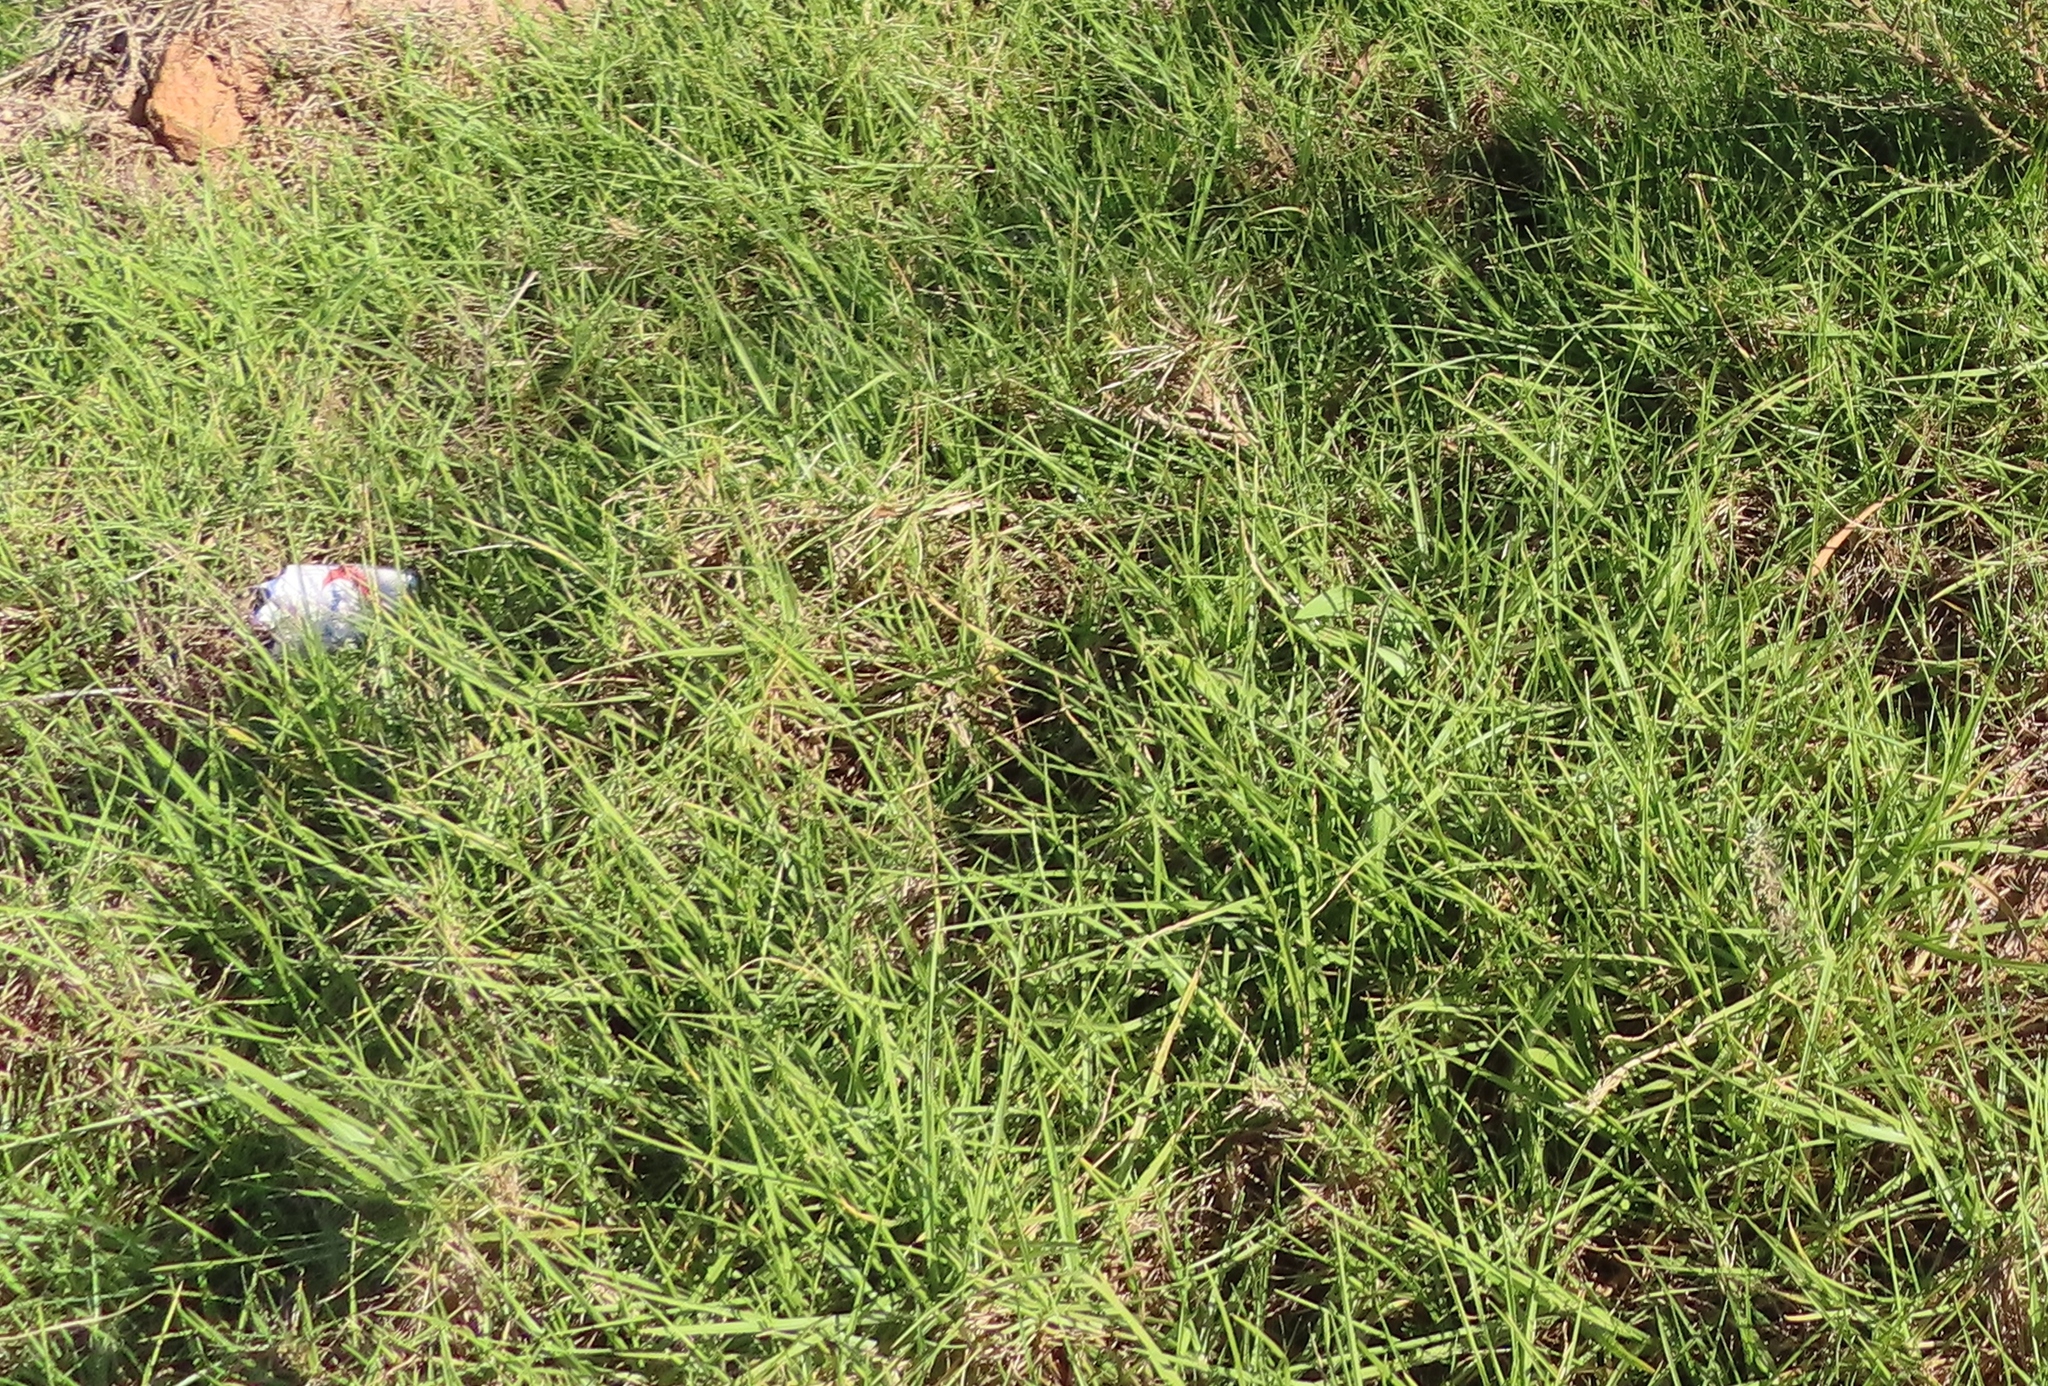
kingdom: Plantae
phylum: Tracheophyta
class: Liliopsida
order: Poales
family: Poaceae
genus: Cenchrus
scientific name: Cenchrus clandestinus
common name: Kikuyugrass
